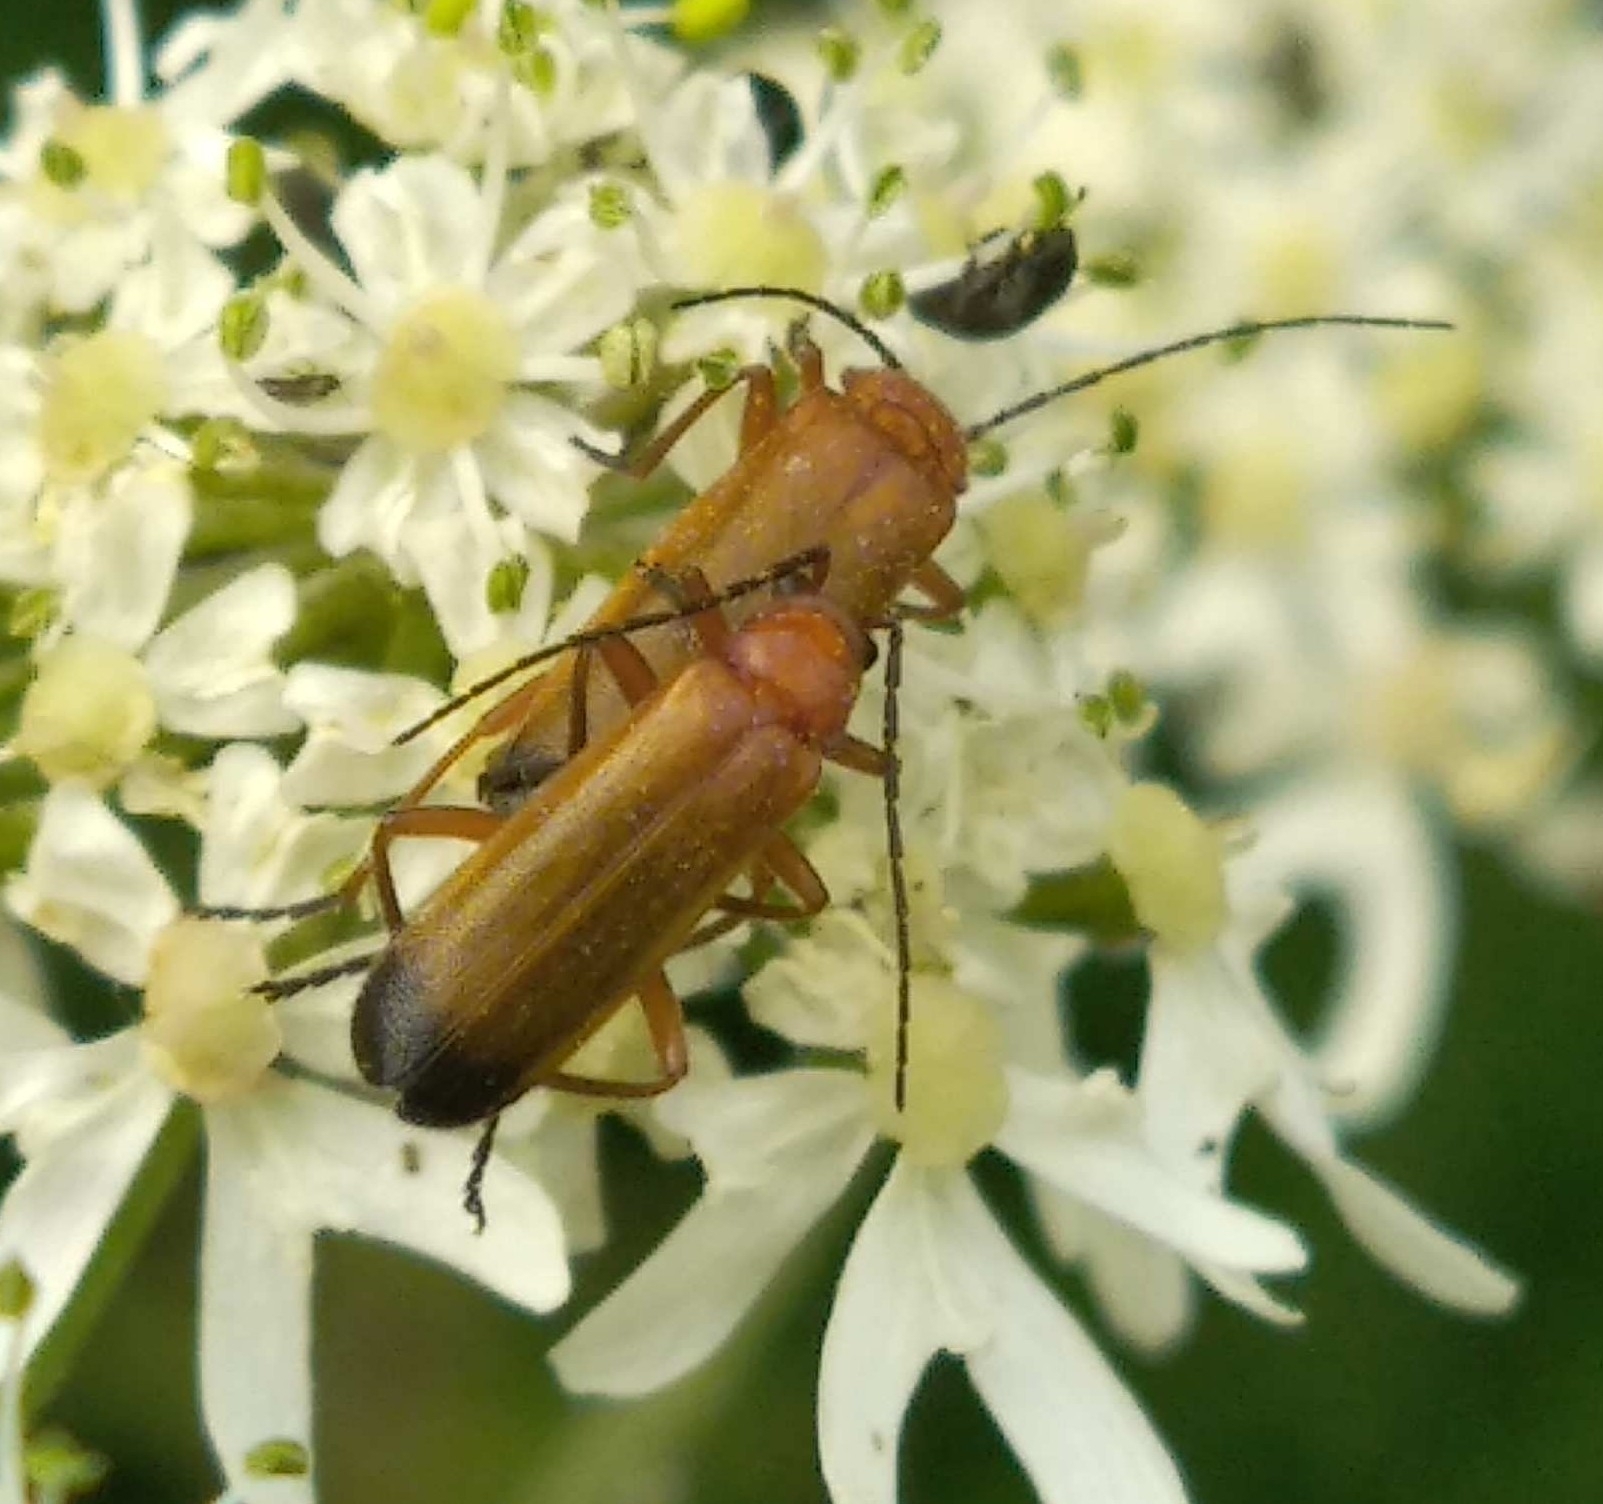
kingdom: Animalia
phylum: Arthropoda
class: Insecta
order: Coleoptera
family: Cantharidae
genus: Rhagonycha
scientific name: Rhagonycha fulva
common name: Common red soldier beetle
